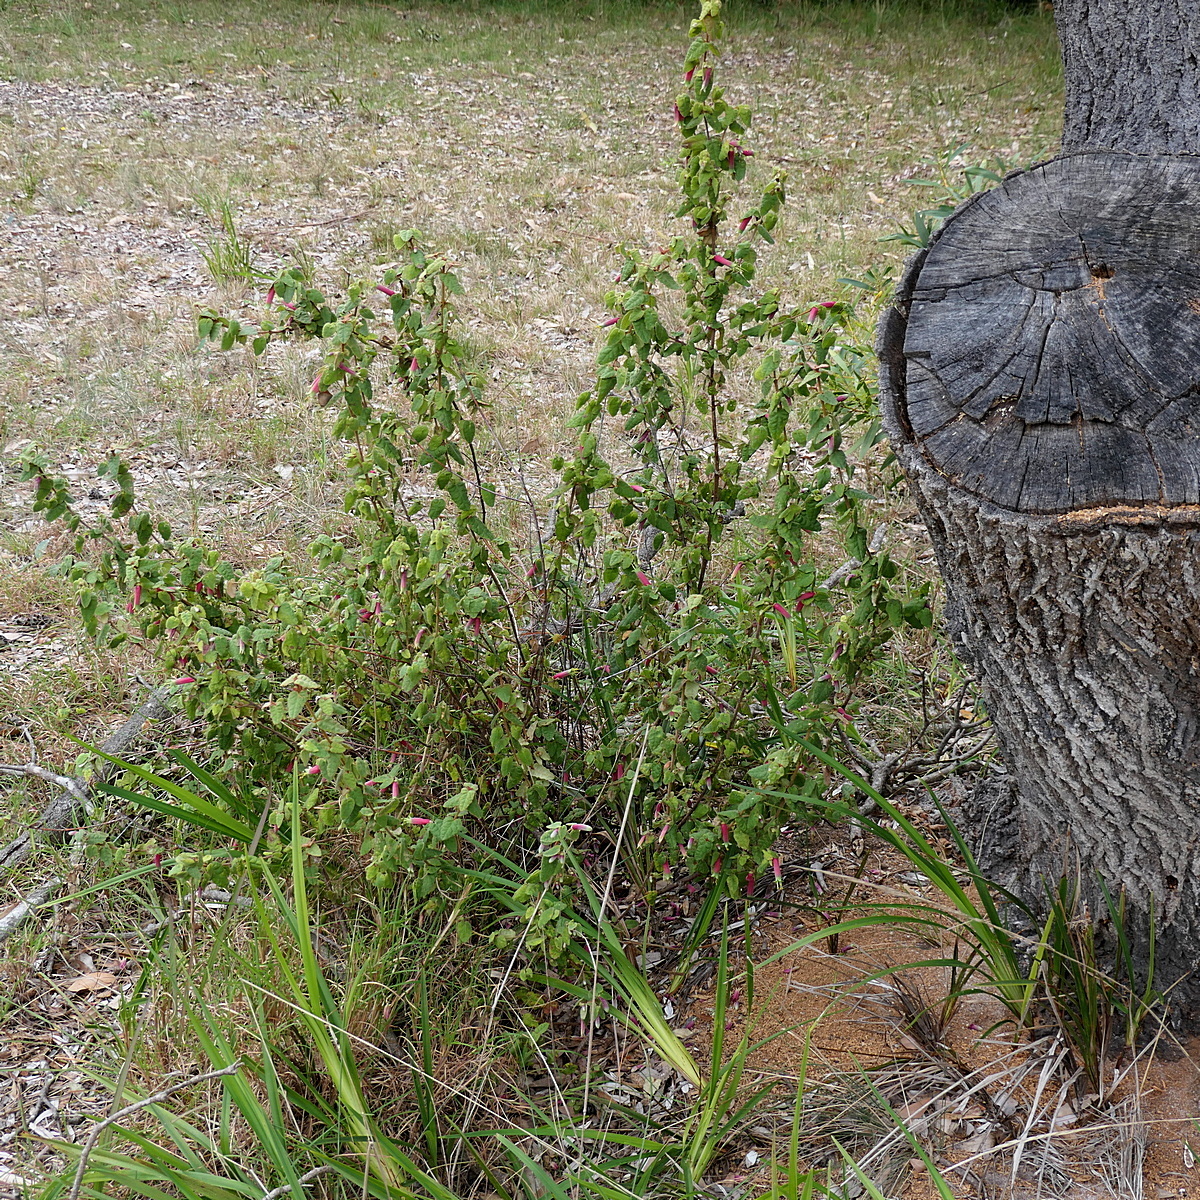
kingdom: Plantae
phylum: Tracheophyta
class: Magnoliopsida
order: Sapindales
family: Rutaceae
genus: Correa
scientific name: Correa reflexa
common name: Common correa
